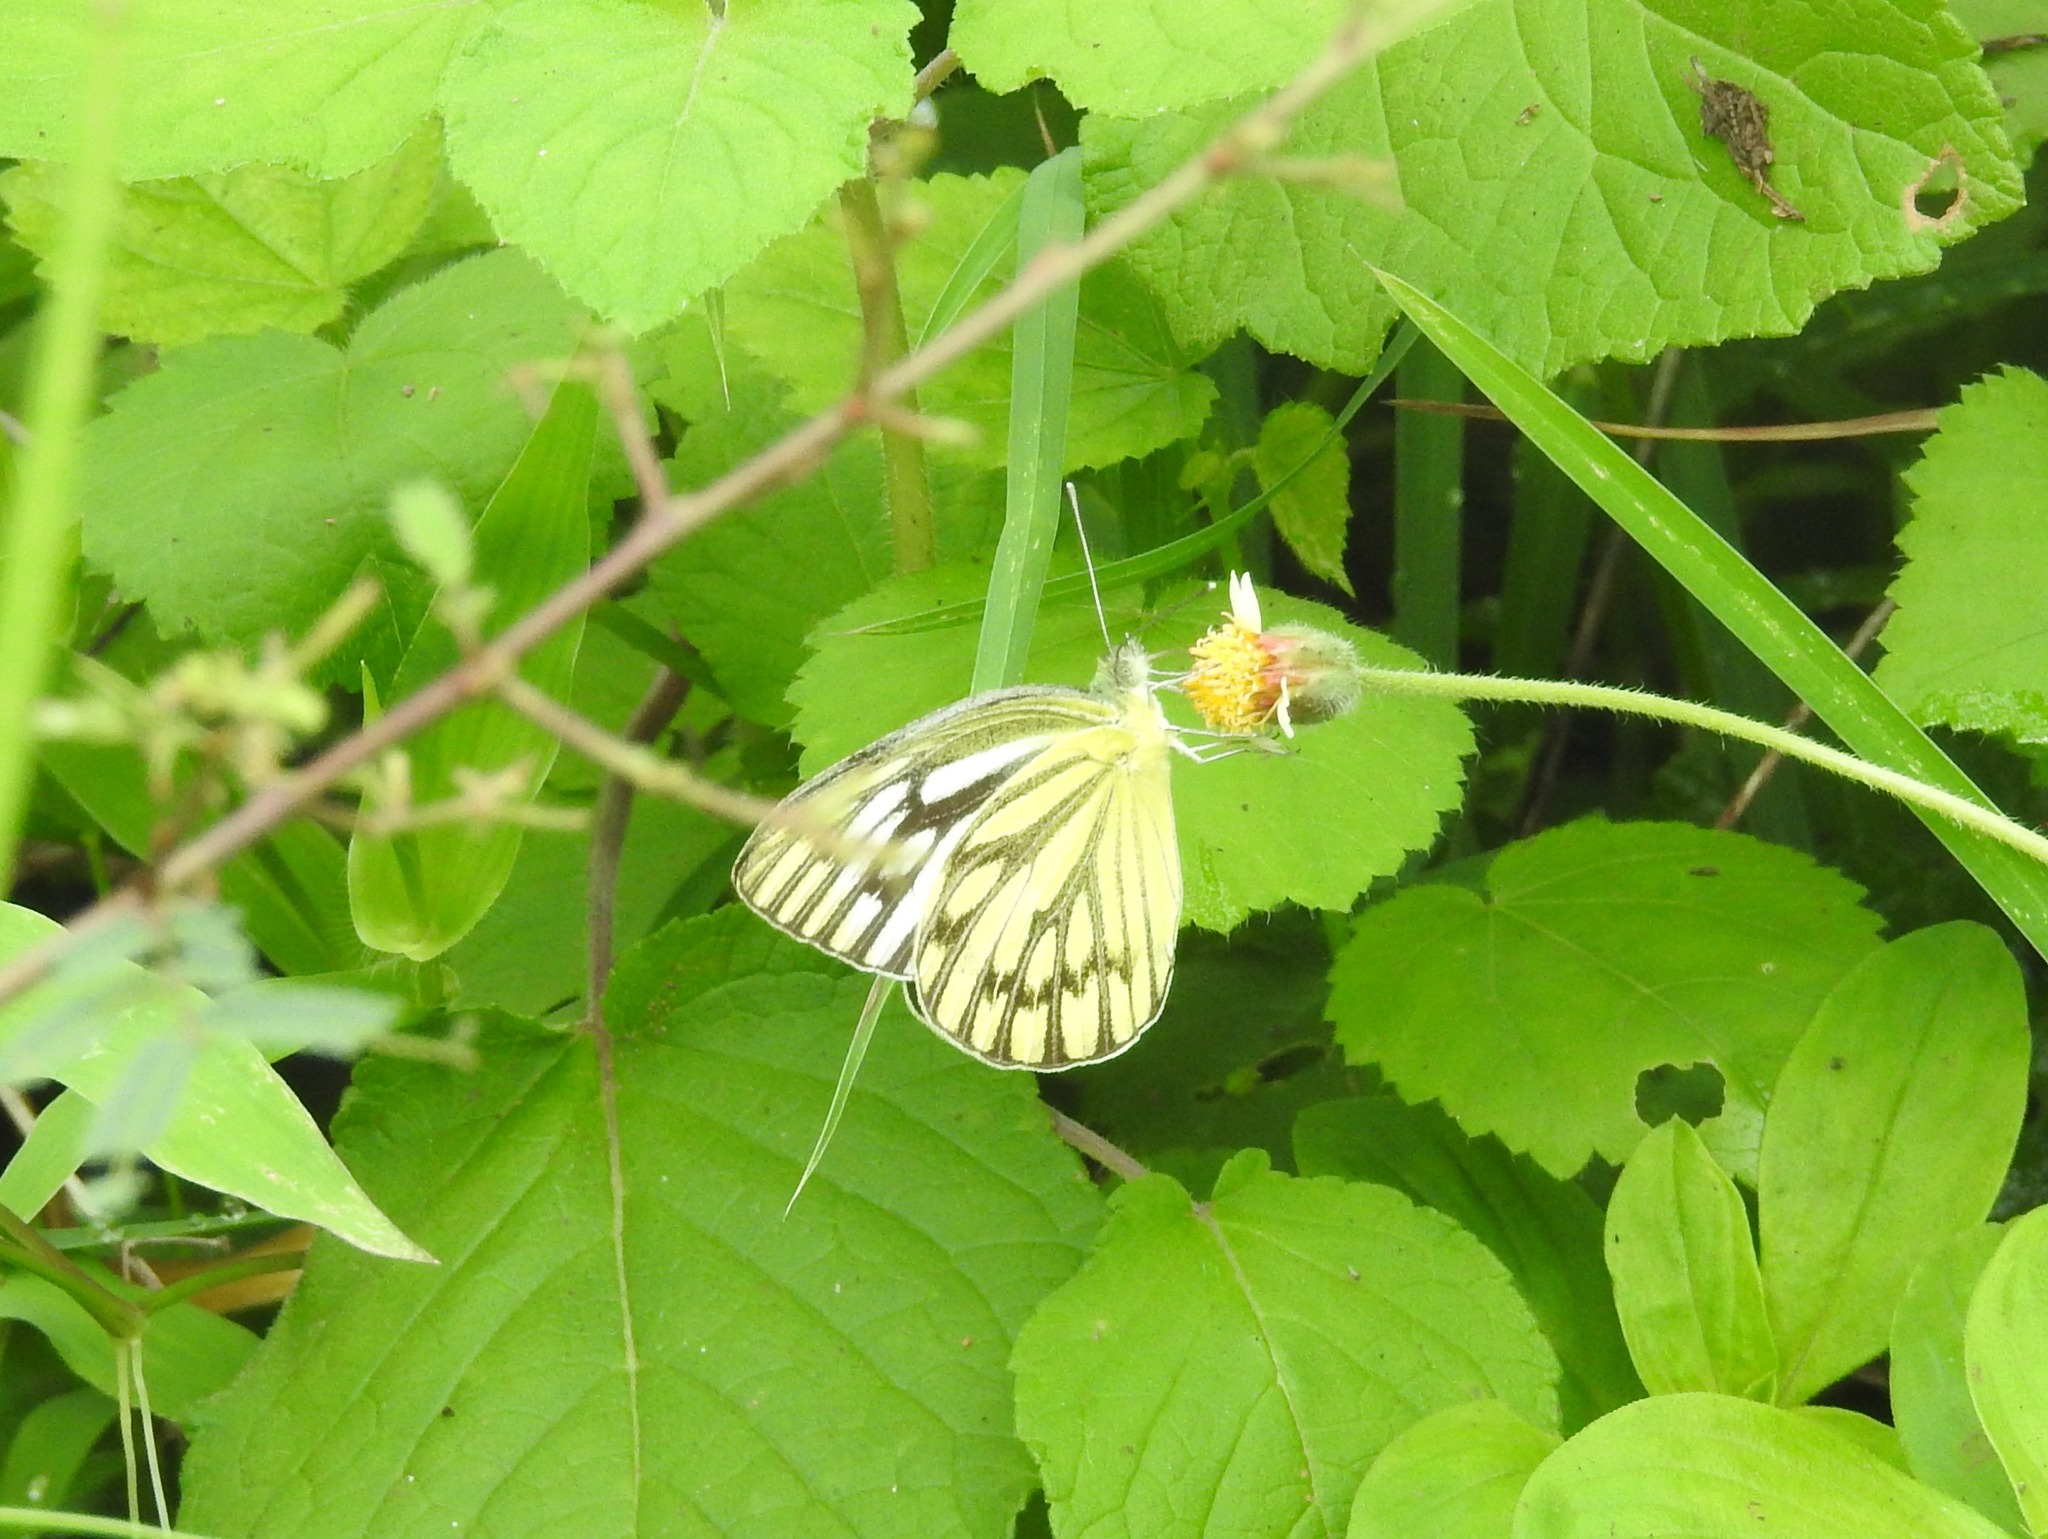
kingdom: Animalia
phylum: Arthropoda
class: Insecta
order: Lepidoptera
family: Pieridae
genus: Cepora
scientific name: Cepora nerissa
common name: Common gull
